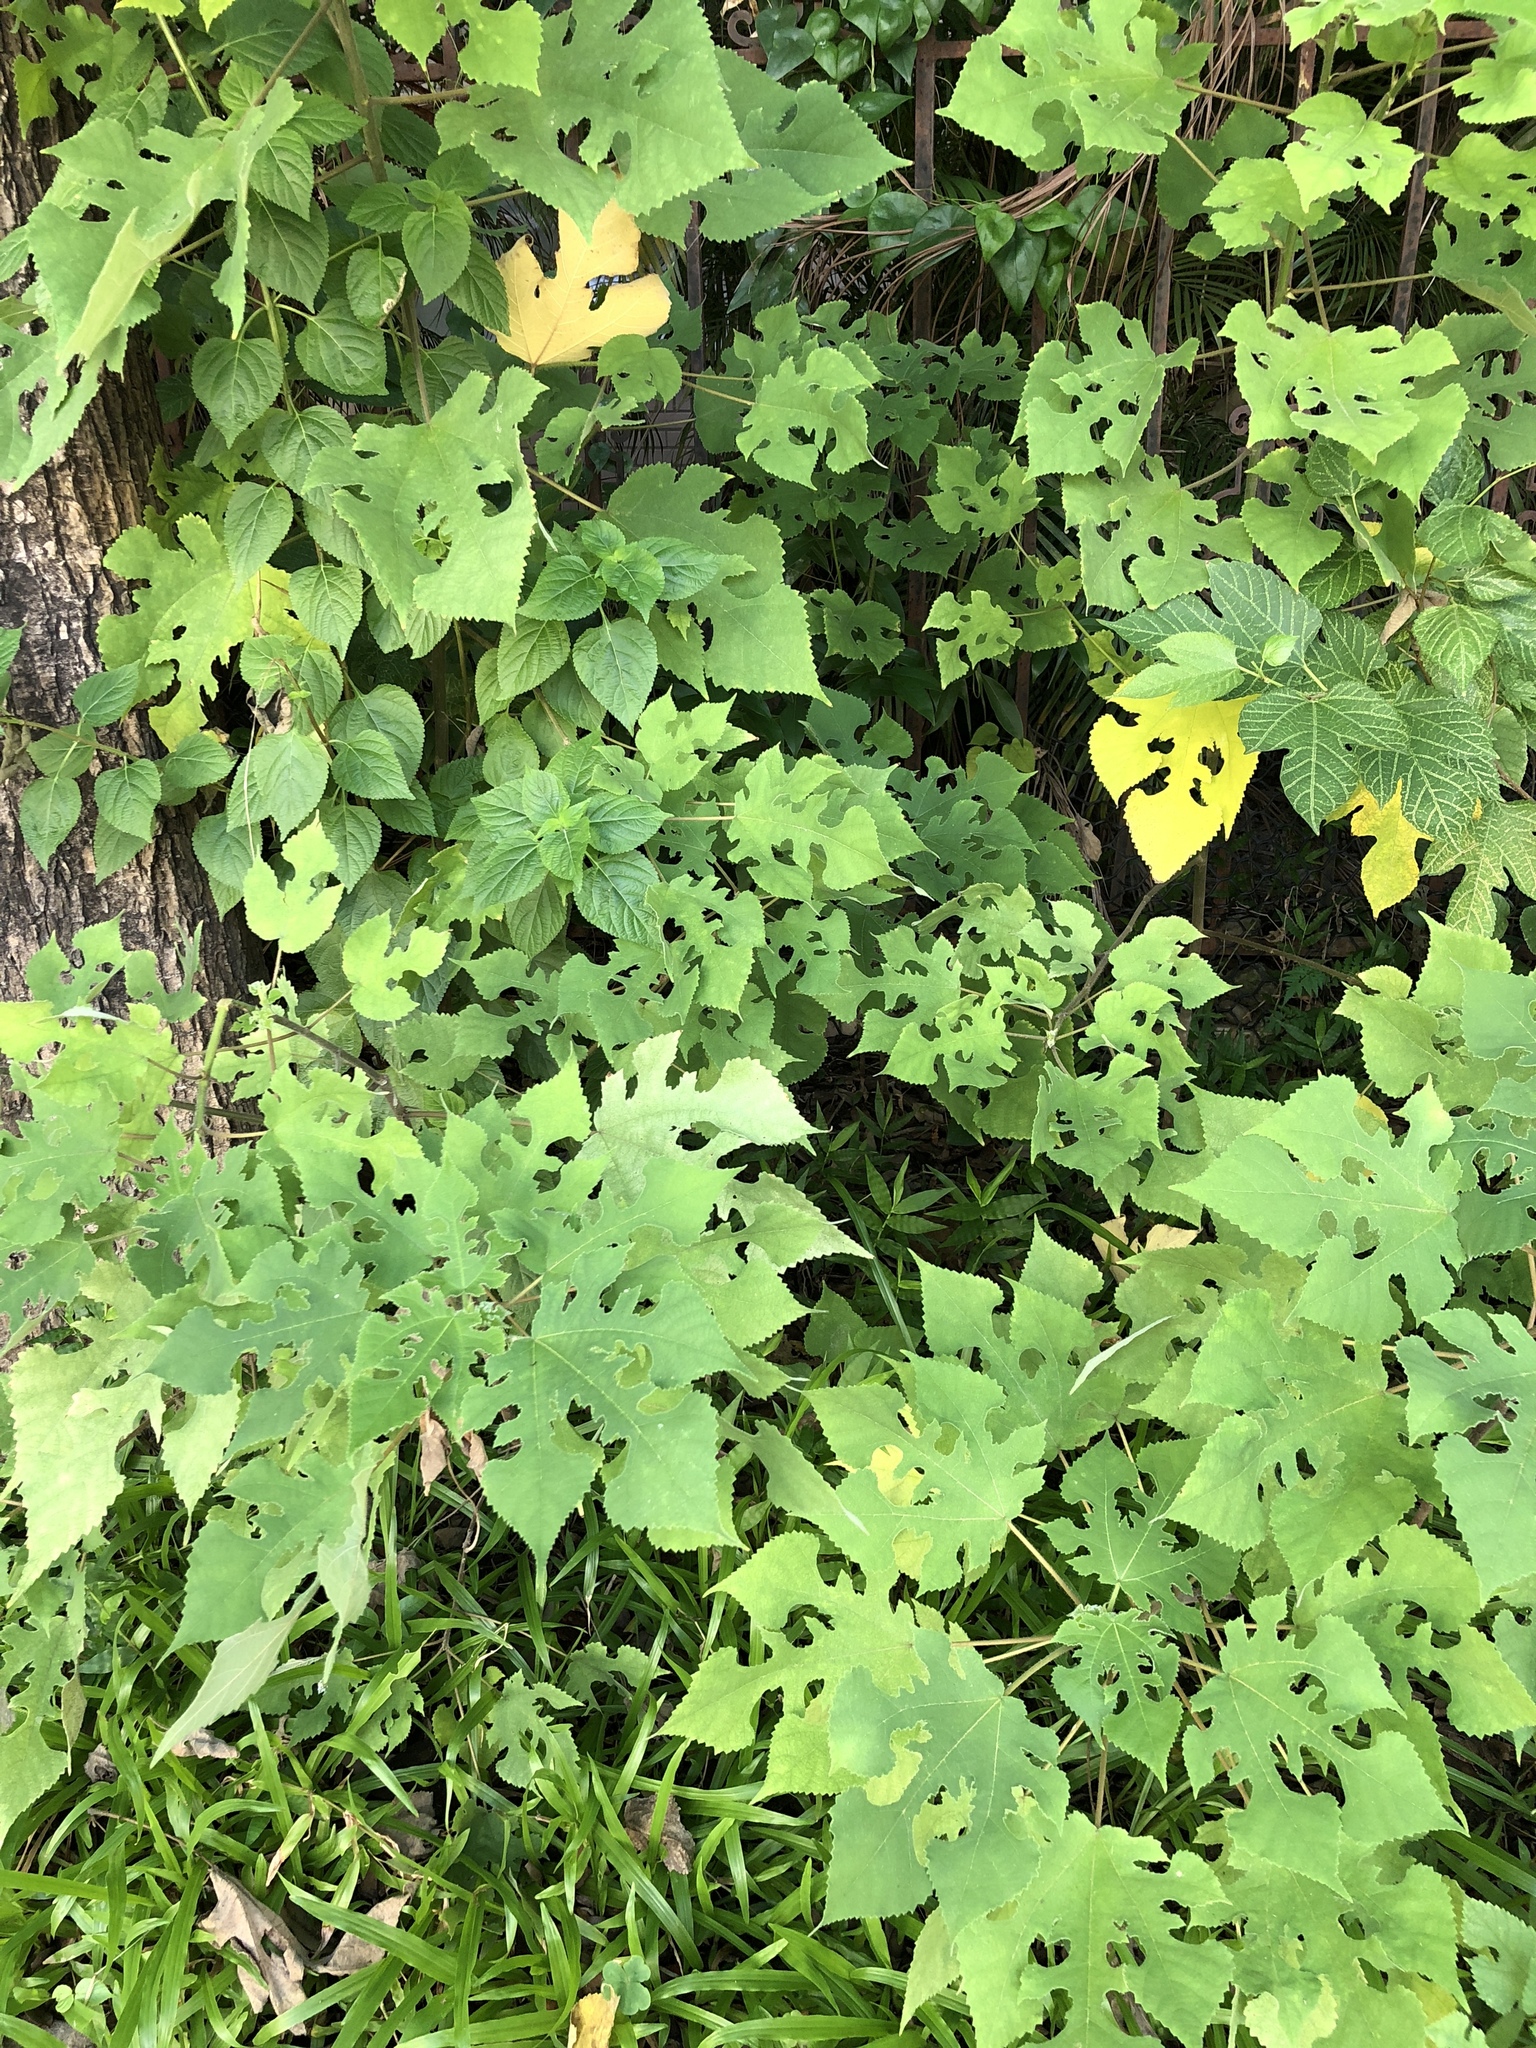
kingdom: Plantae
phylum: Tracheophyta
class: Magnoliopsida
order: Rosales
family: Moraceae
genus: Broussonetia
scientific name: Broussonetia papyrifera
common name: Paper mulberry
